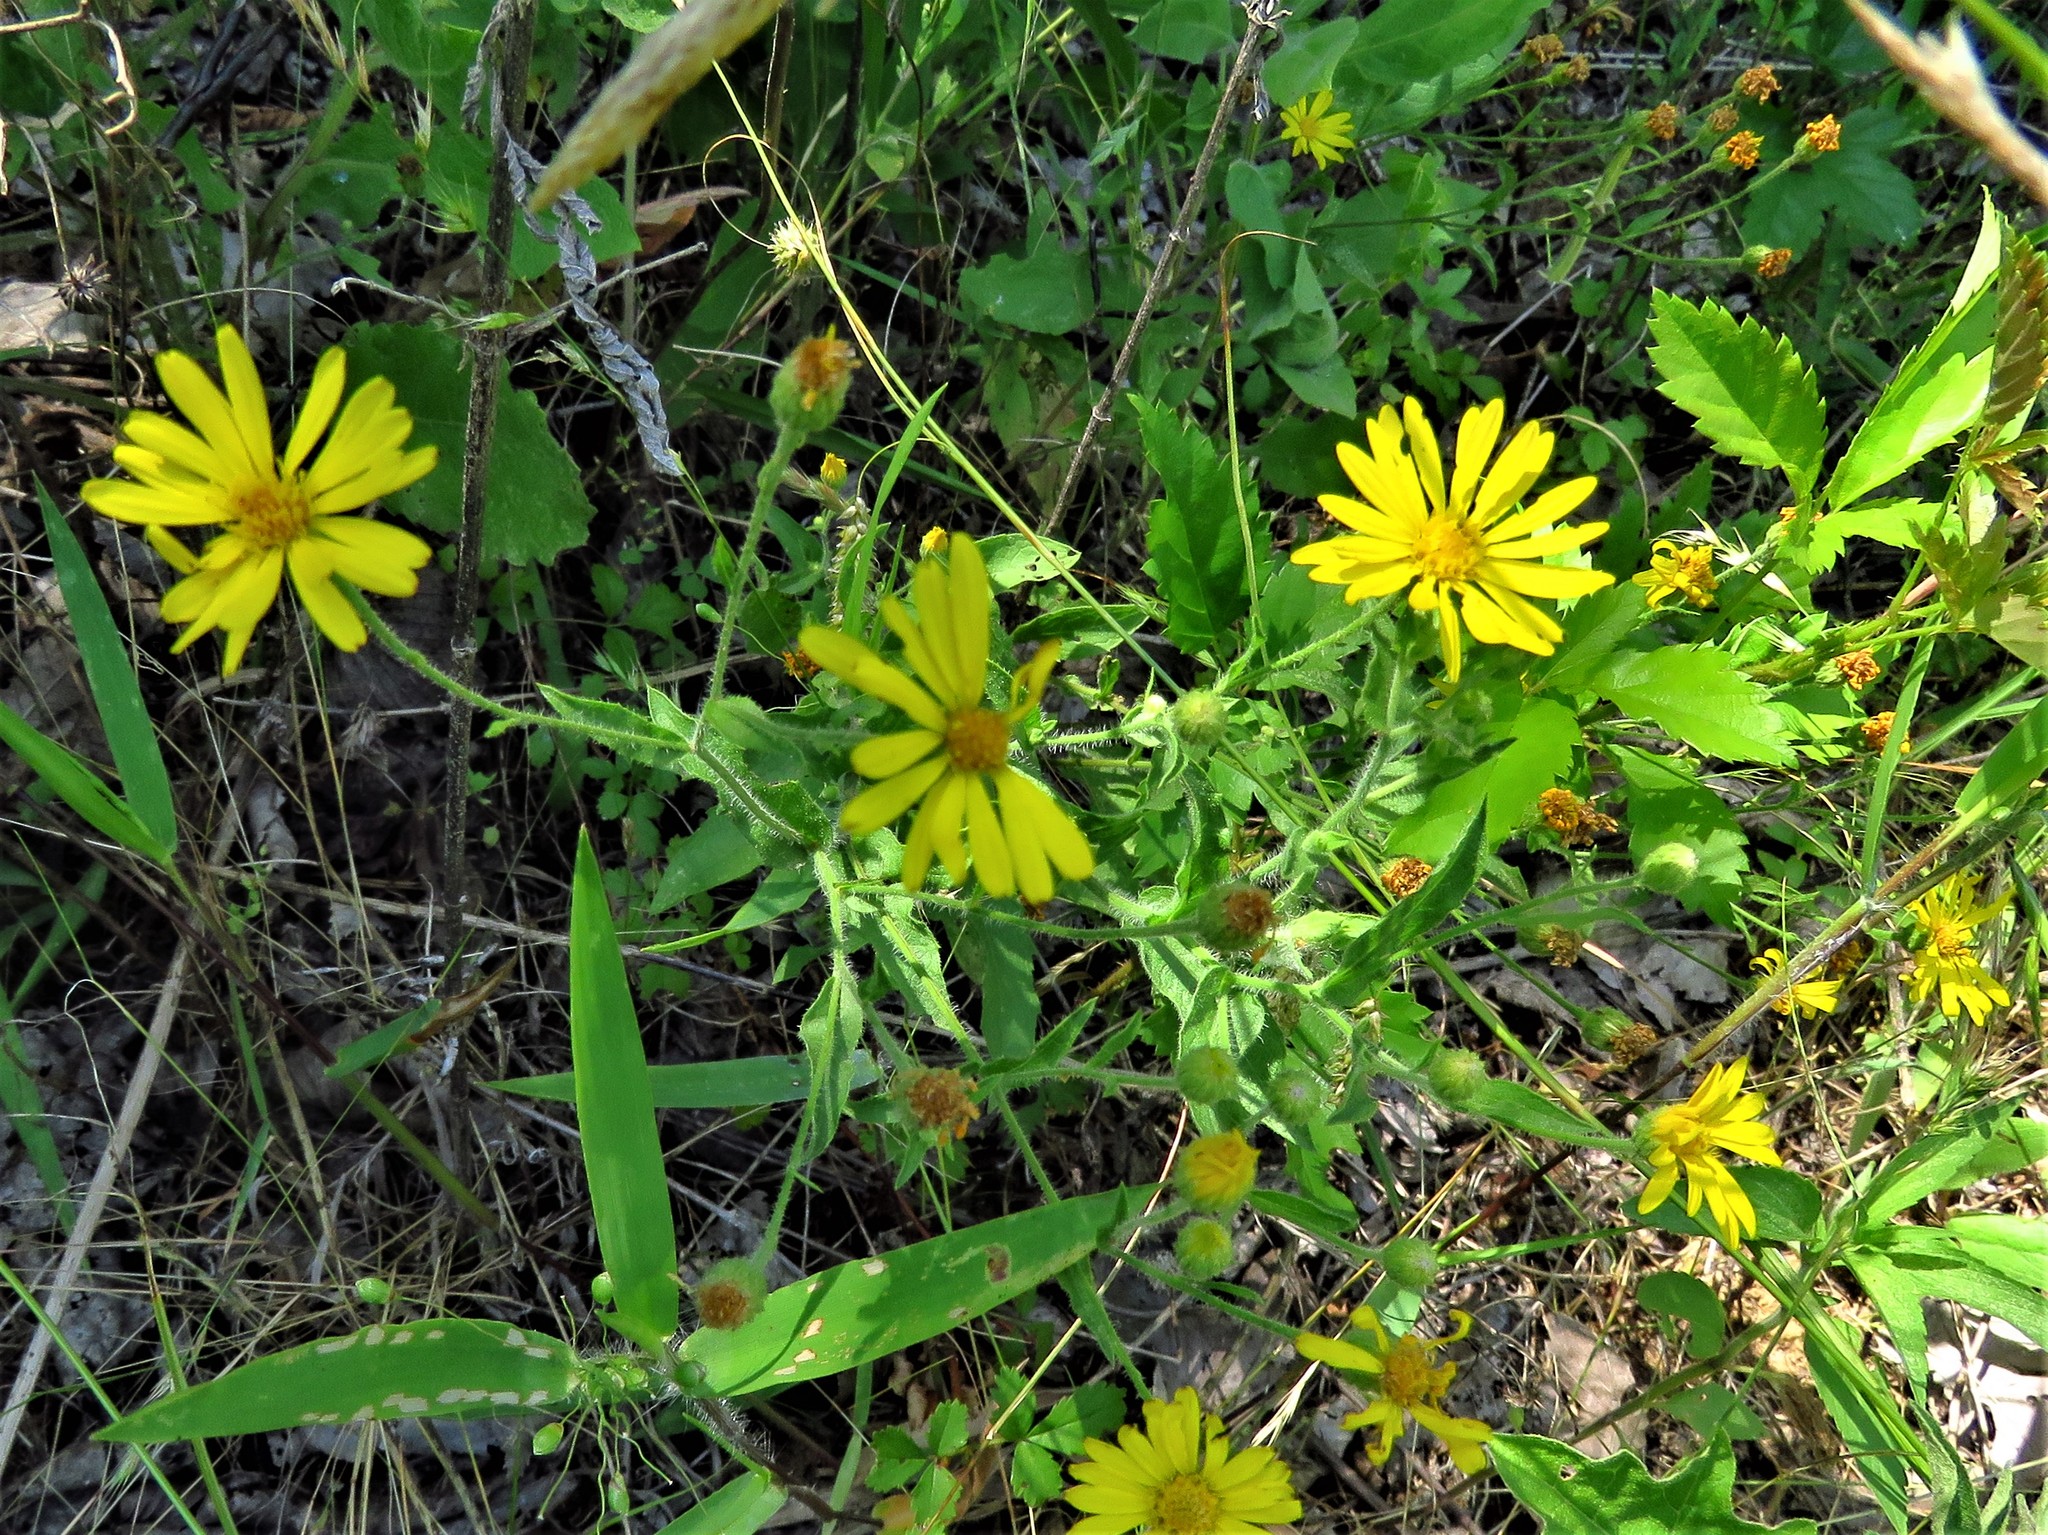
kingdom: Plantae
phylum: Tracheophyta
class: Magnoliopsida
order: Asterales
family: Asteraceae
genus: Heterotheca
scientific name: Heterotheca subaxillaris
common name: Camphorweed
